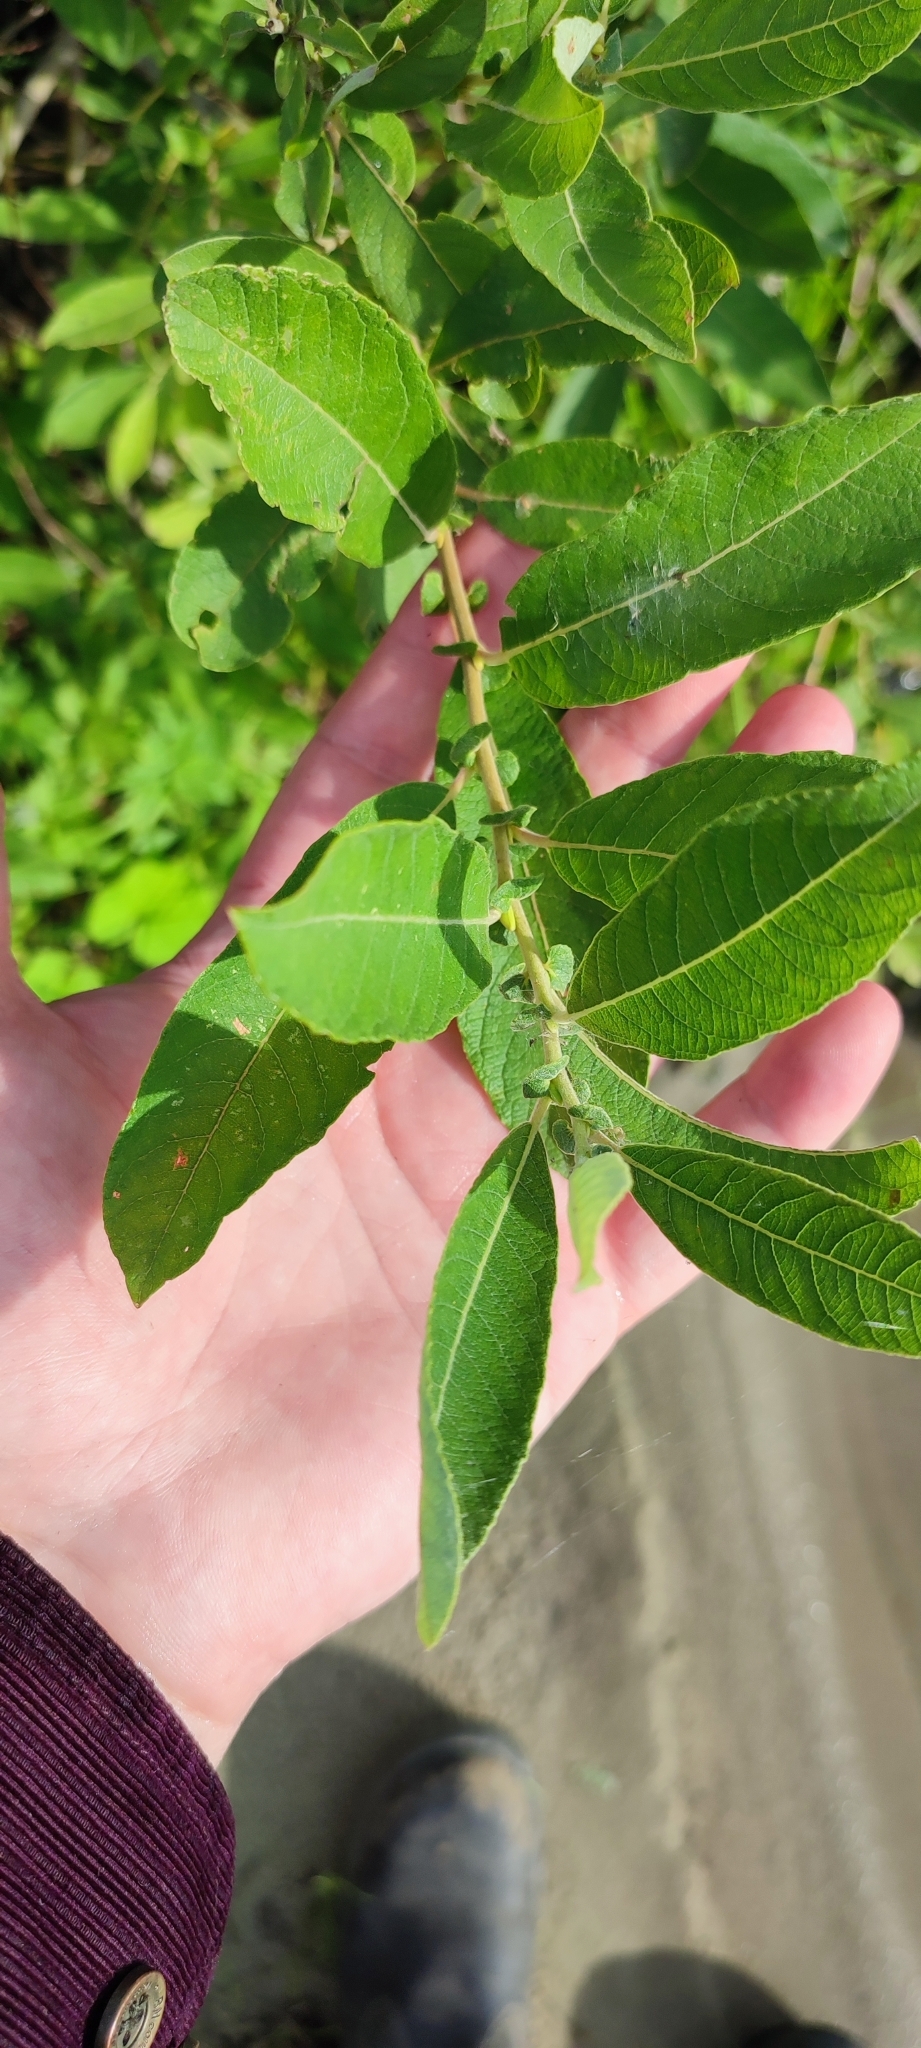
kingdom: Plantae
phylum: Tracheophyta
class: Magnoliopsida
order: Malpighiales
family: Salicaceae
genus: Salix
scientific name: Salix cinerea
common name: Common sallow
